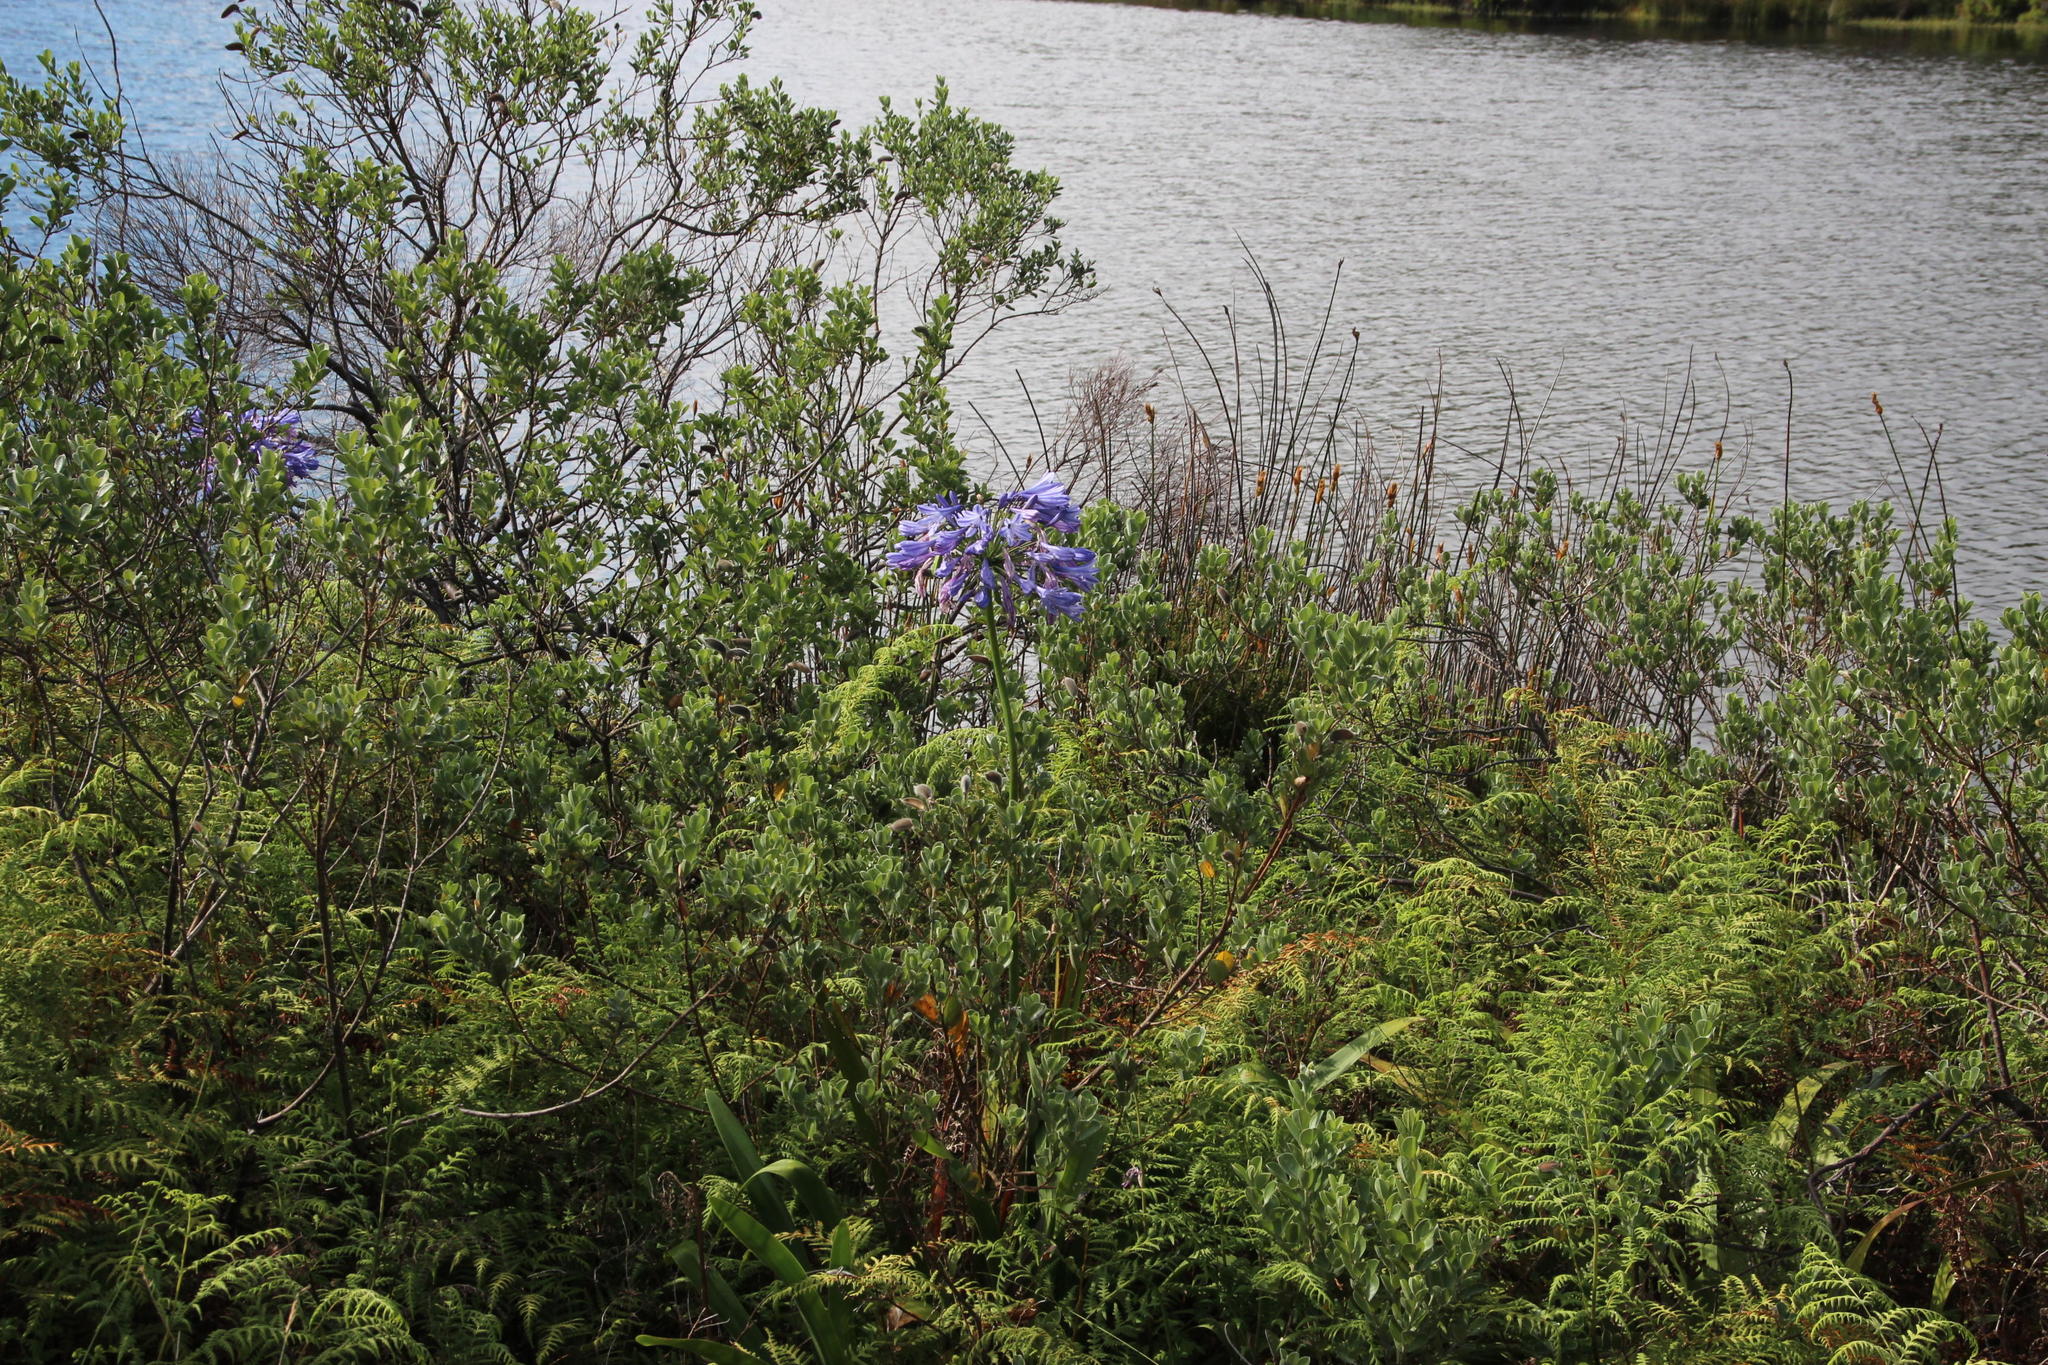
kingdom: Plantae
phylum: Tracheophyta
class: Polypodiopsida
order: Polypodiales
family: Dennstaedtiaceae
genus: Pteridium
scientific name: Pteridium aquilinum
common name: Bracken
